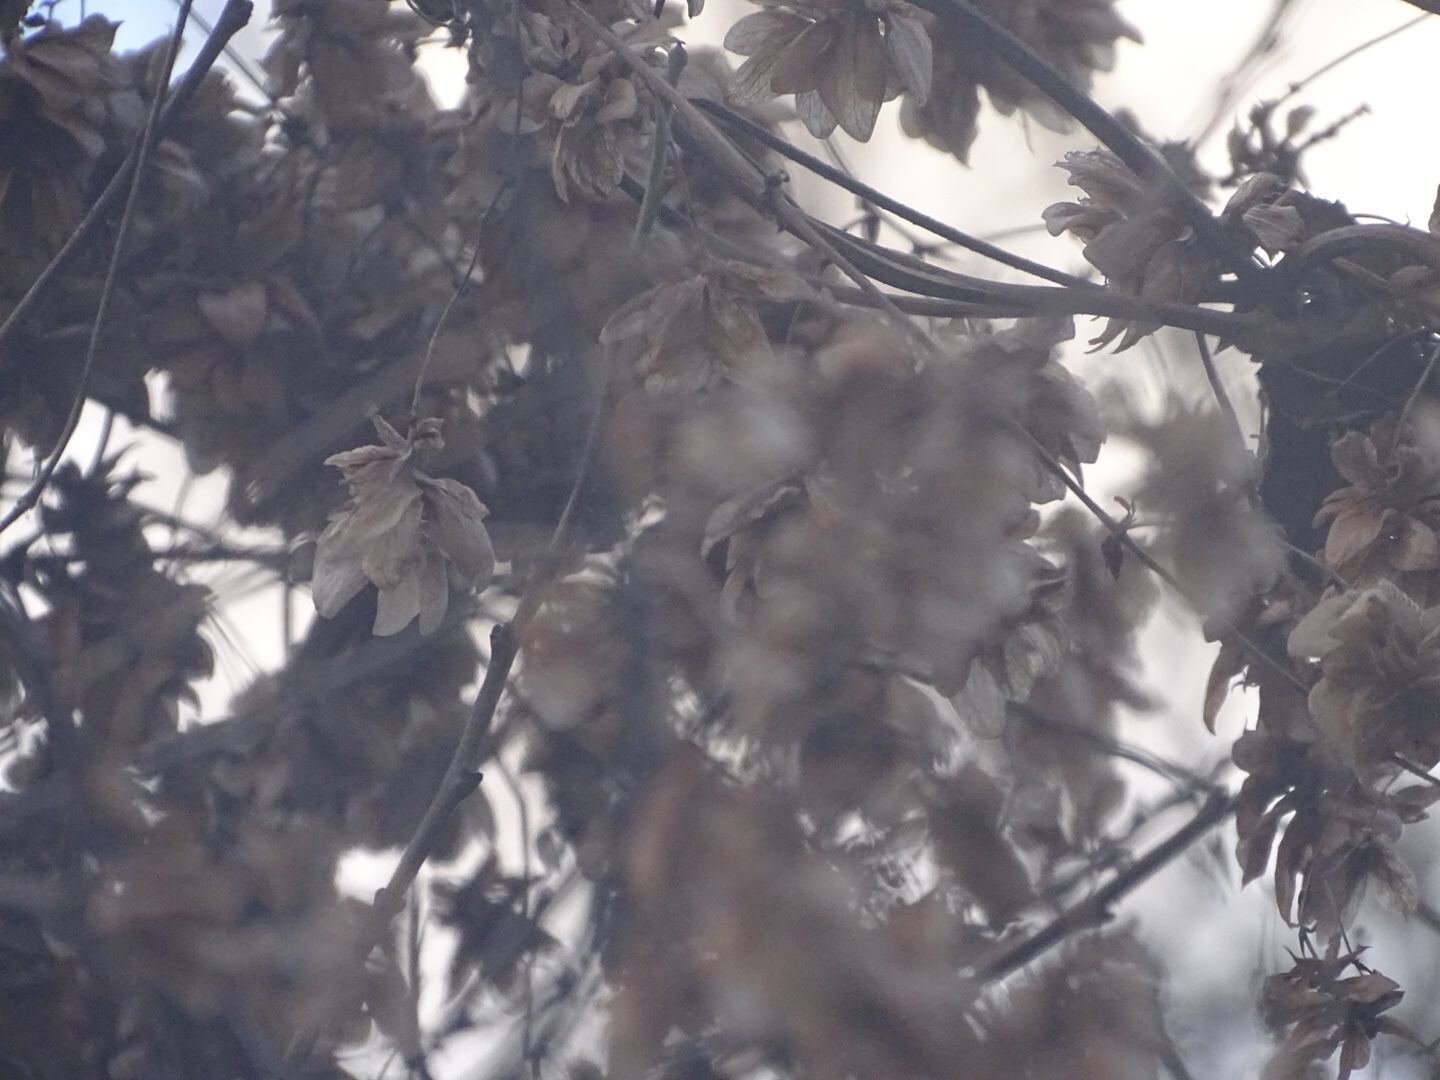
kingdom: Plantae
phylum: Tracheophyta
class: Magnoliopsida
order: Rosales
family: Cannabaceae
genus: Humulus
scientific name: Humulus lupulus
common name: Hop
